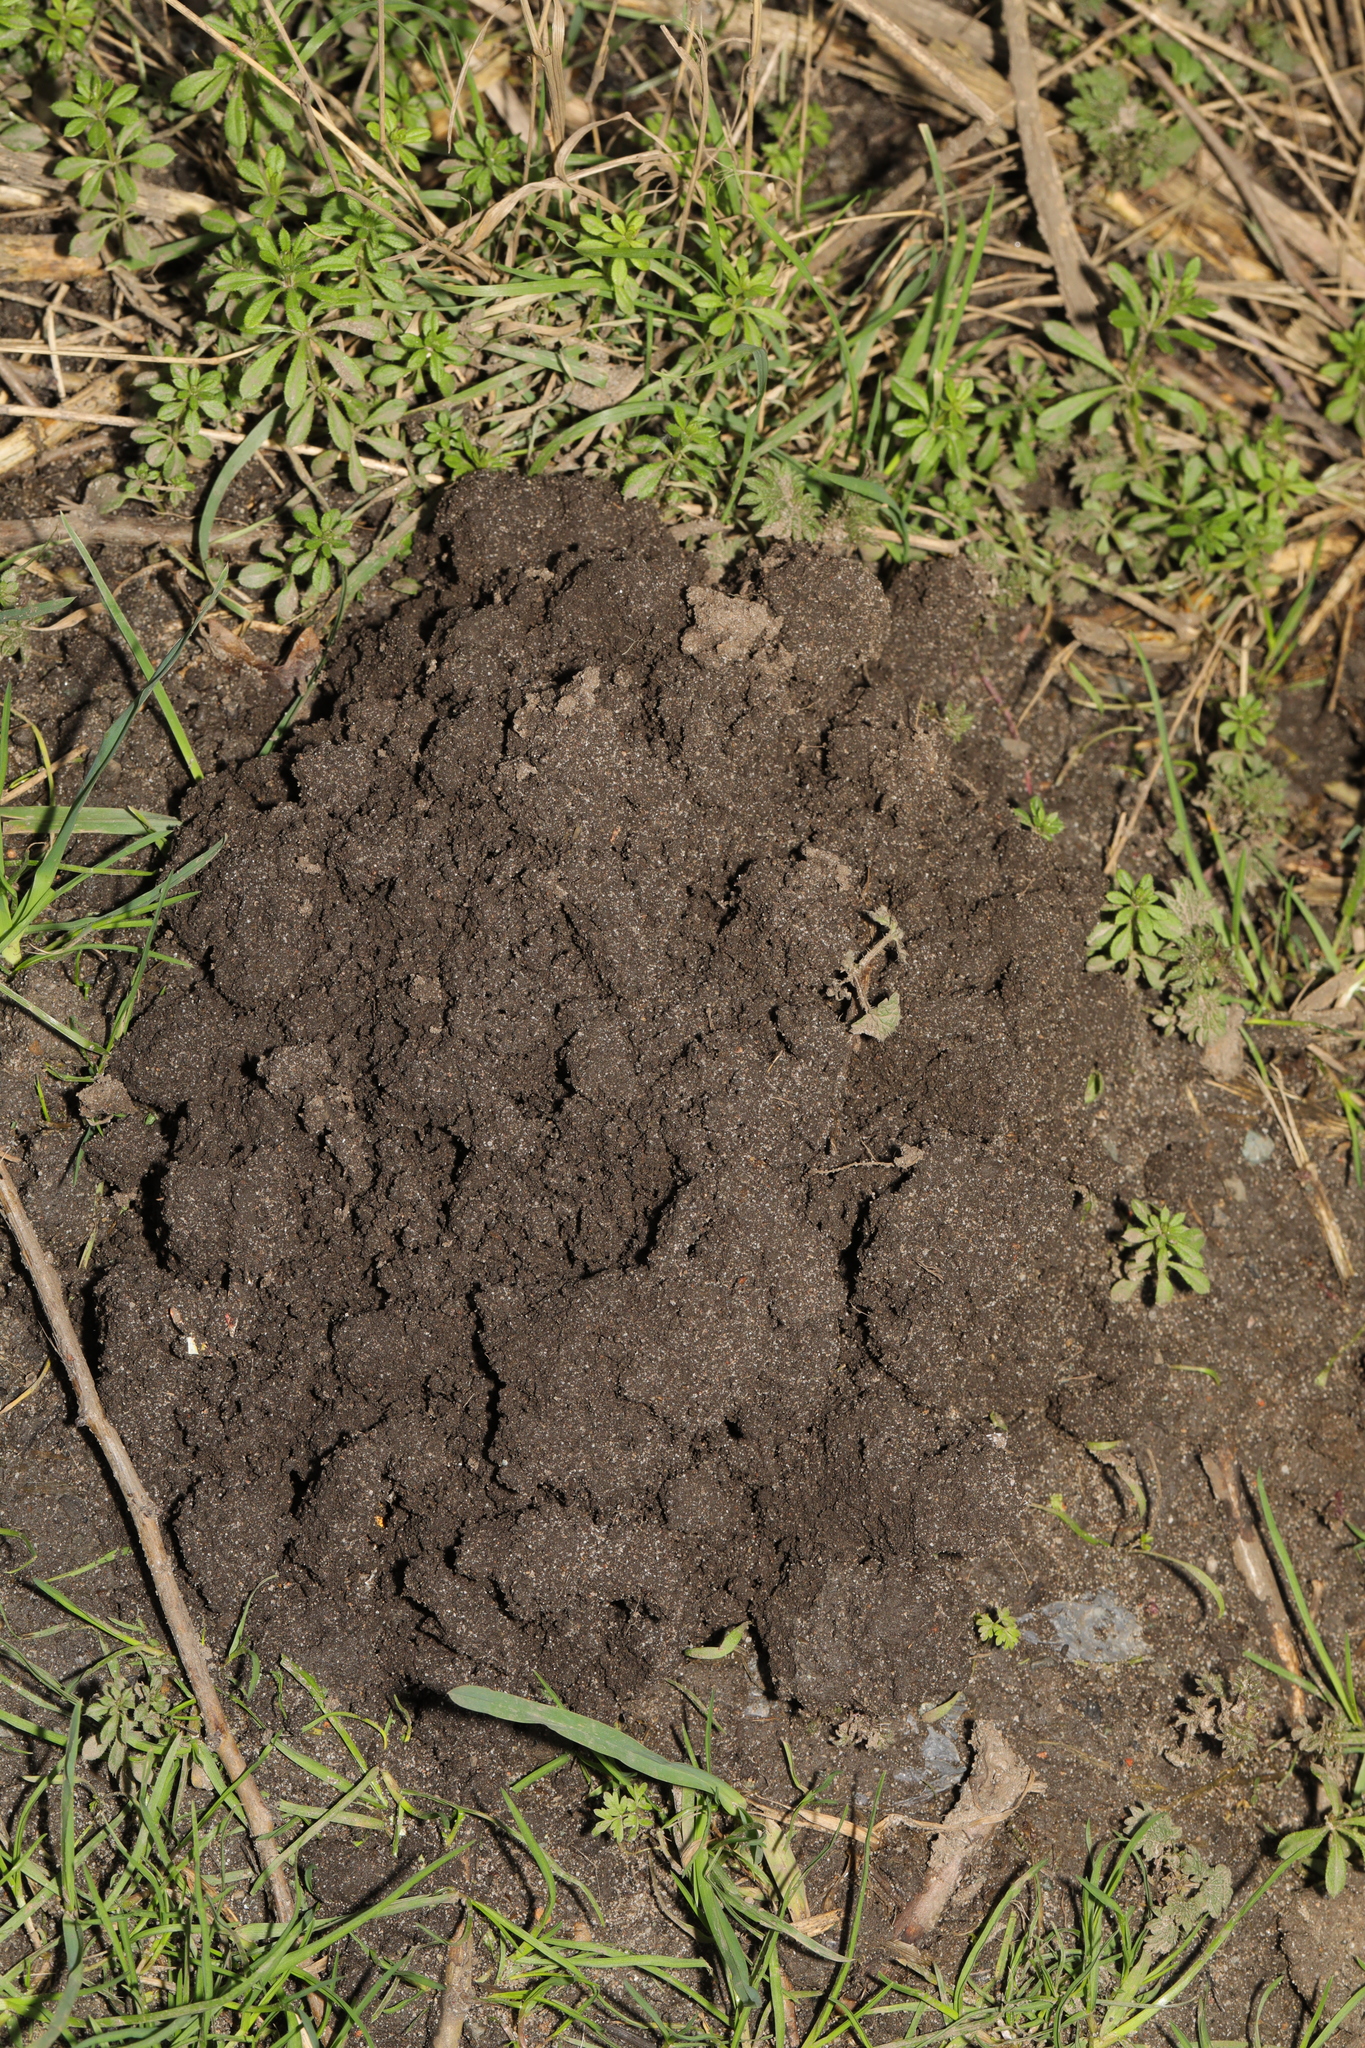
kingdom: Animalia
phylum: Chordata
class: Mammalia
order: Soricomorpha
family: Talpidae
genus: Talpa
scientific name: Talpa europaea
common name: European mole
